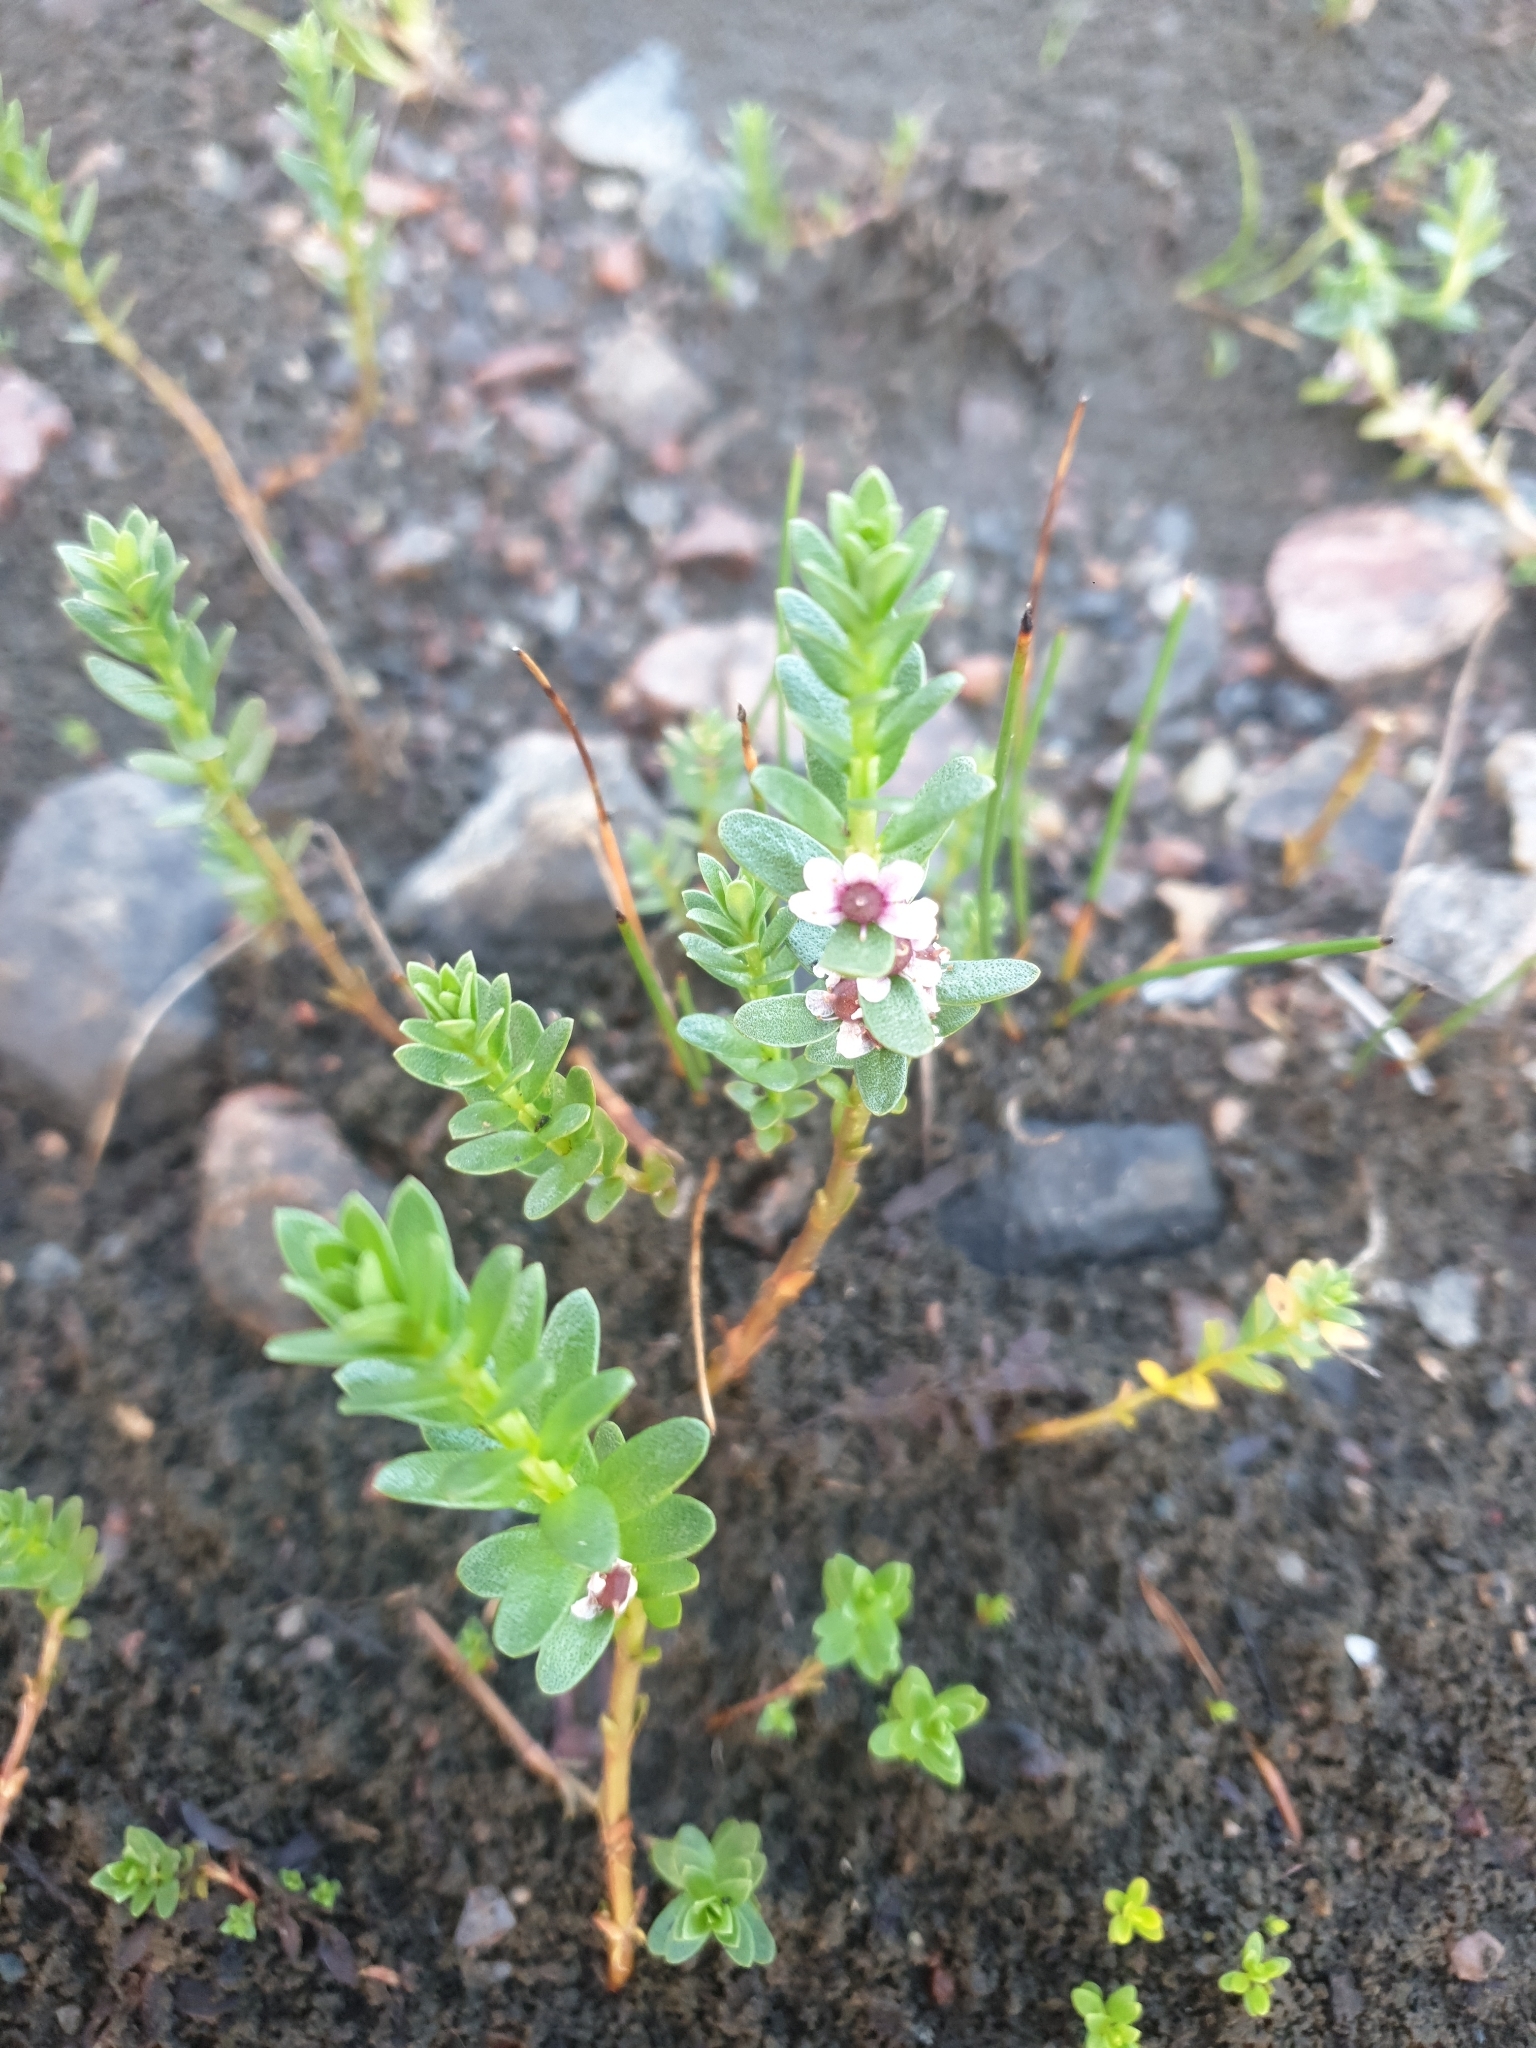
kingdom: Plantae
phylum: Tracheophyta
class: Magnoliopsida
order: Ericales
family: Primulaceae
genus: Lysimachia
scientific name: Lysimachia maritima
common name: Sea milkwort
